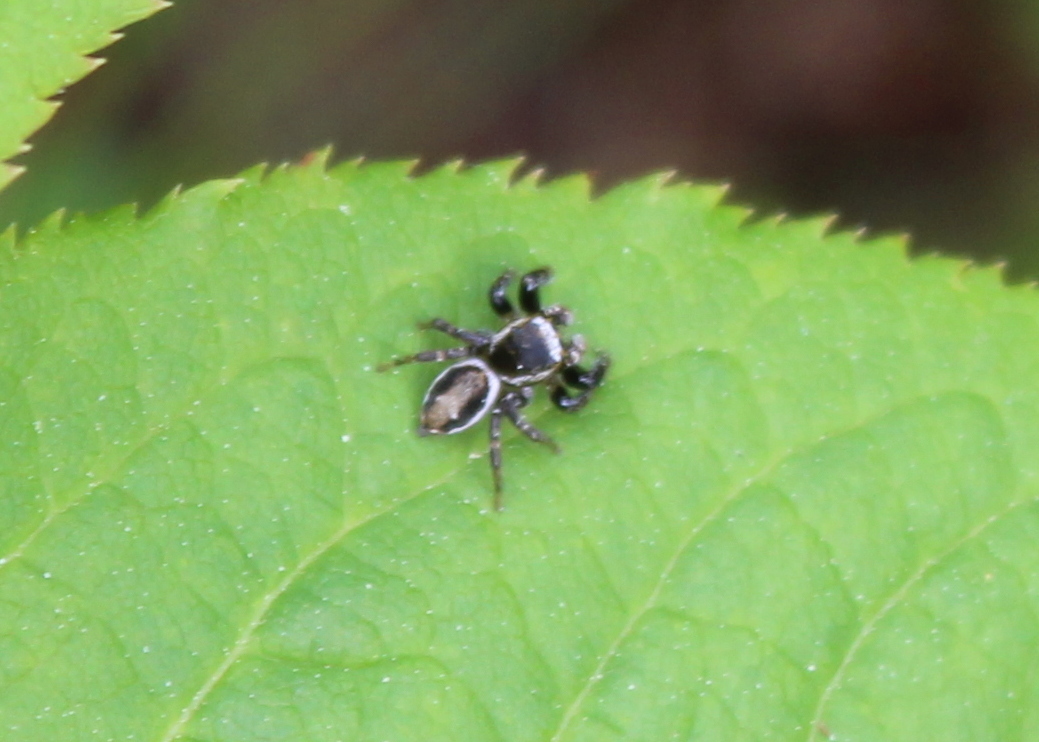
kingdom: Animalia
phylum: Arthropoda
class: Arachnida
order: Araneae
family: Salticidae
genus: Evarcha
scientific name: Evarcha hoyi
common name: Hoy's jumping spider
